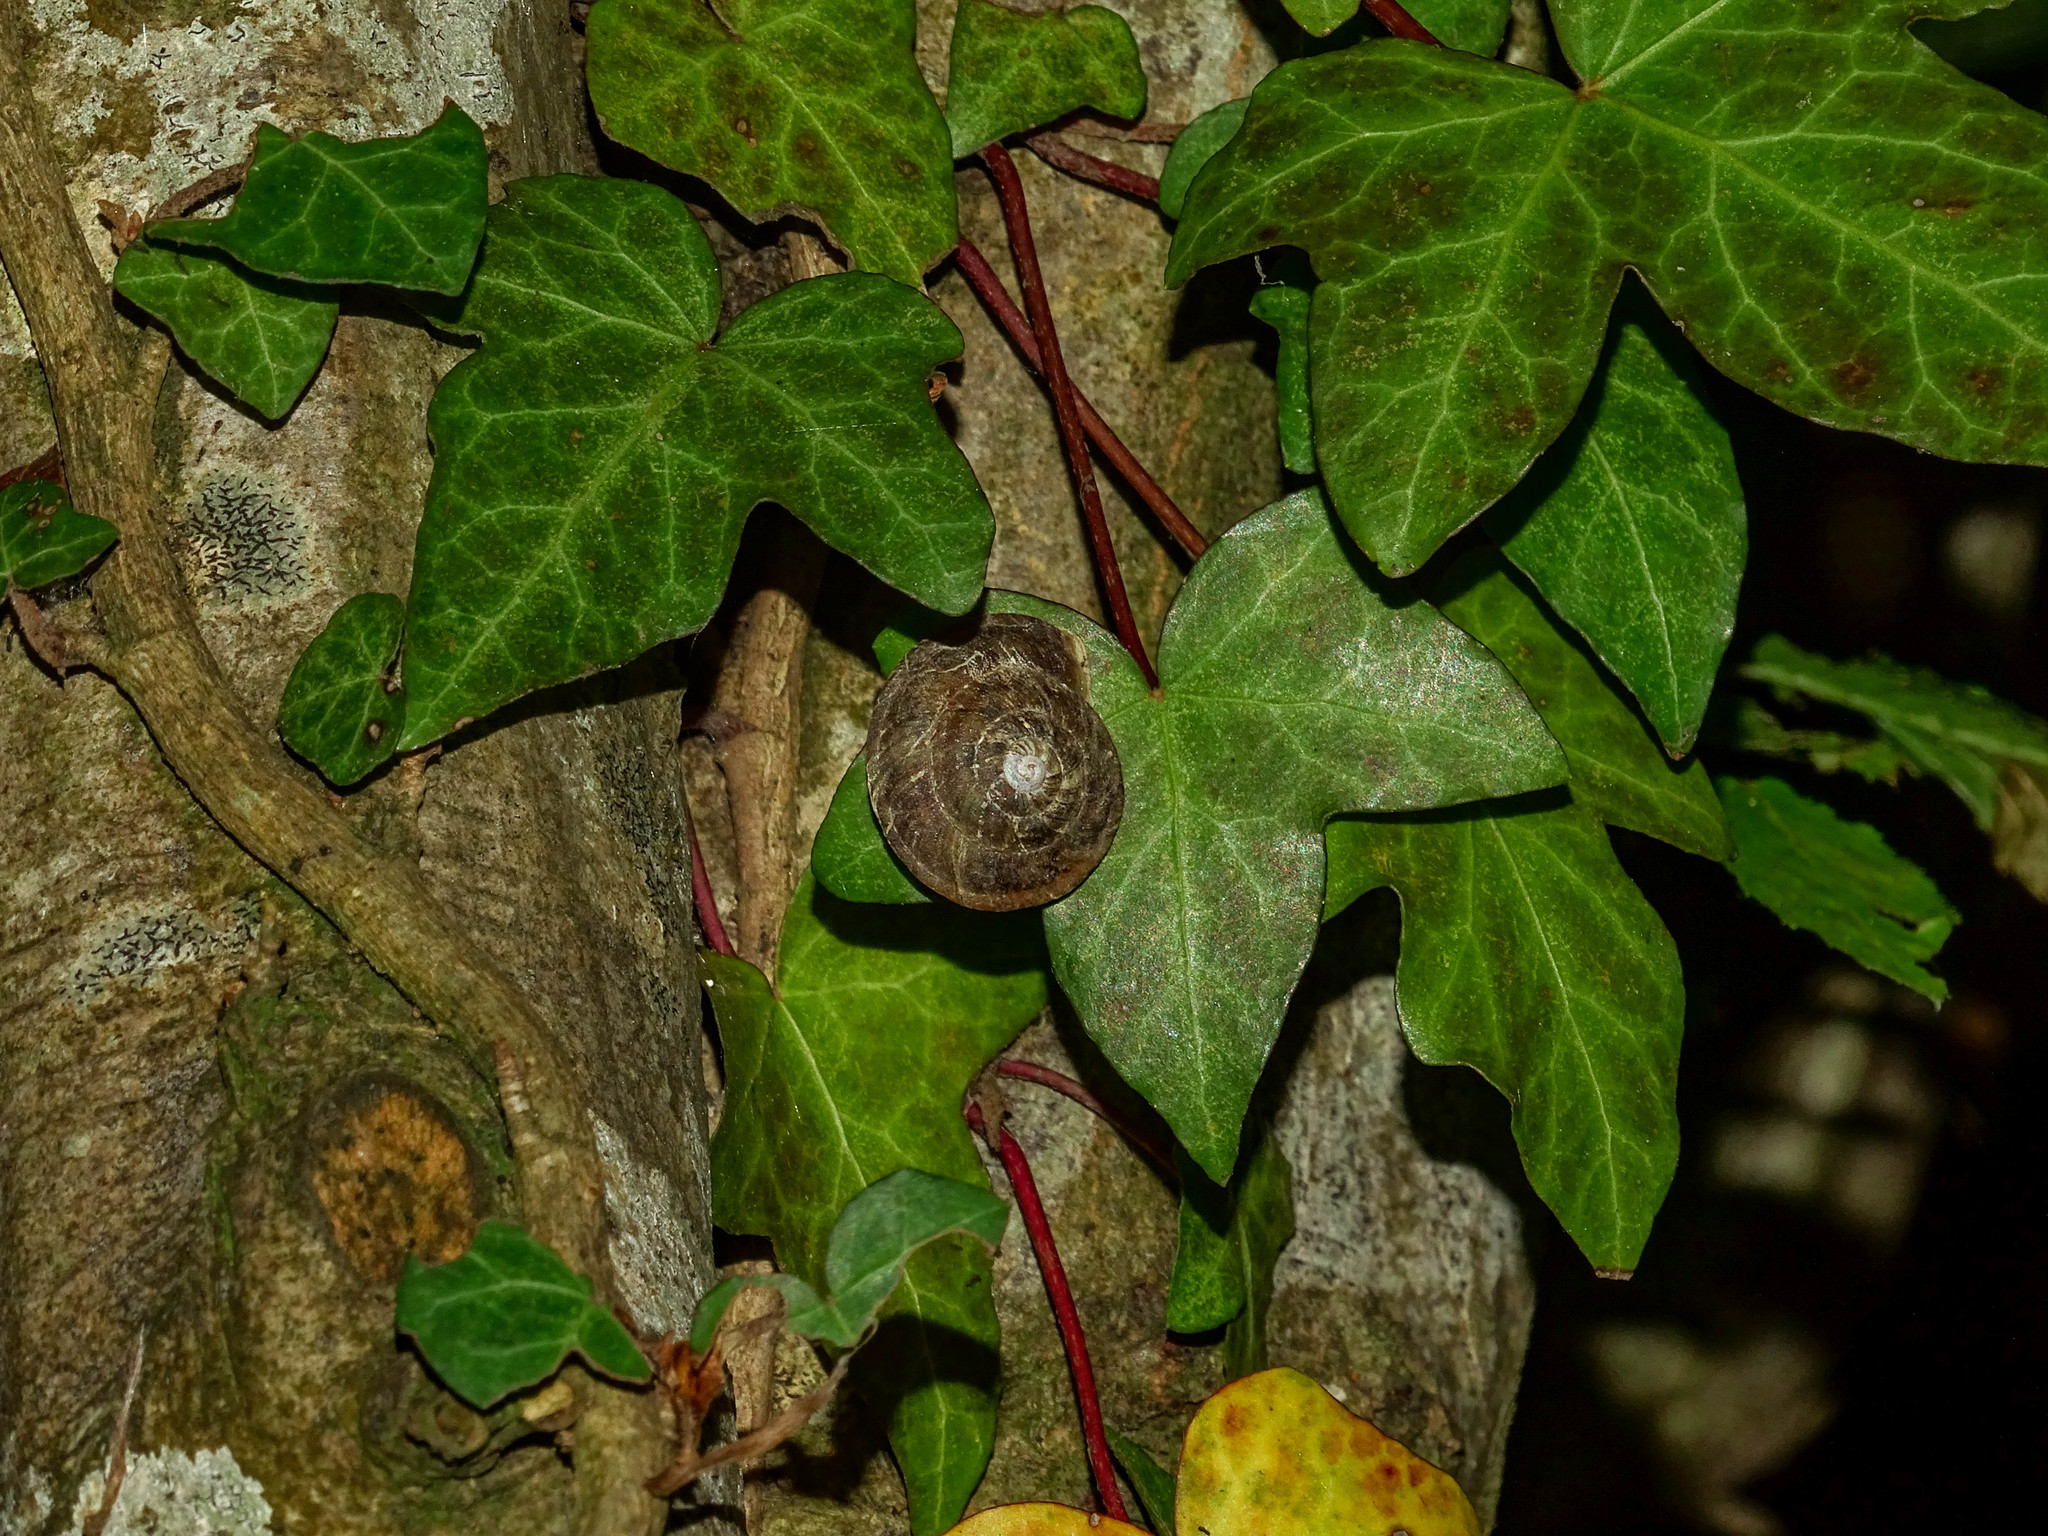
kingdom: Animalia
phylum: Mollusca
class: Gastropoda
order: Stylommatophora
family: Helicidae
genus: Helicigona
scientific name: Helicigona lapicida
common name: Lapidary snail
